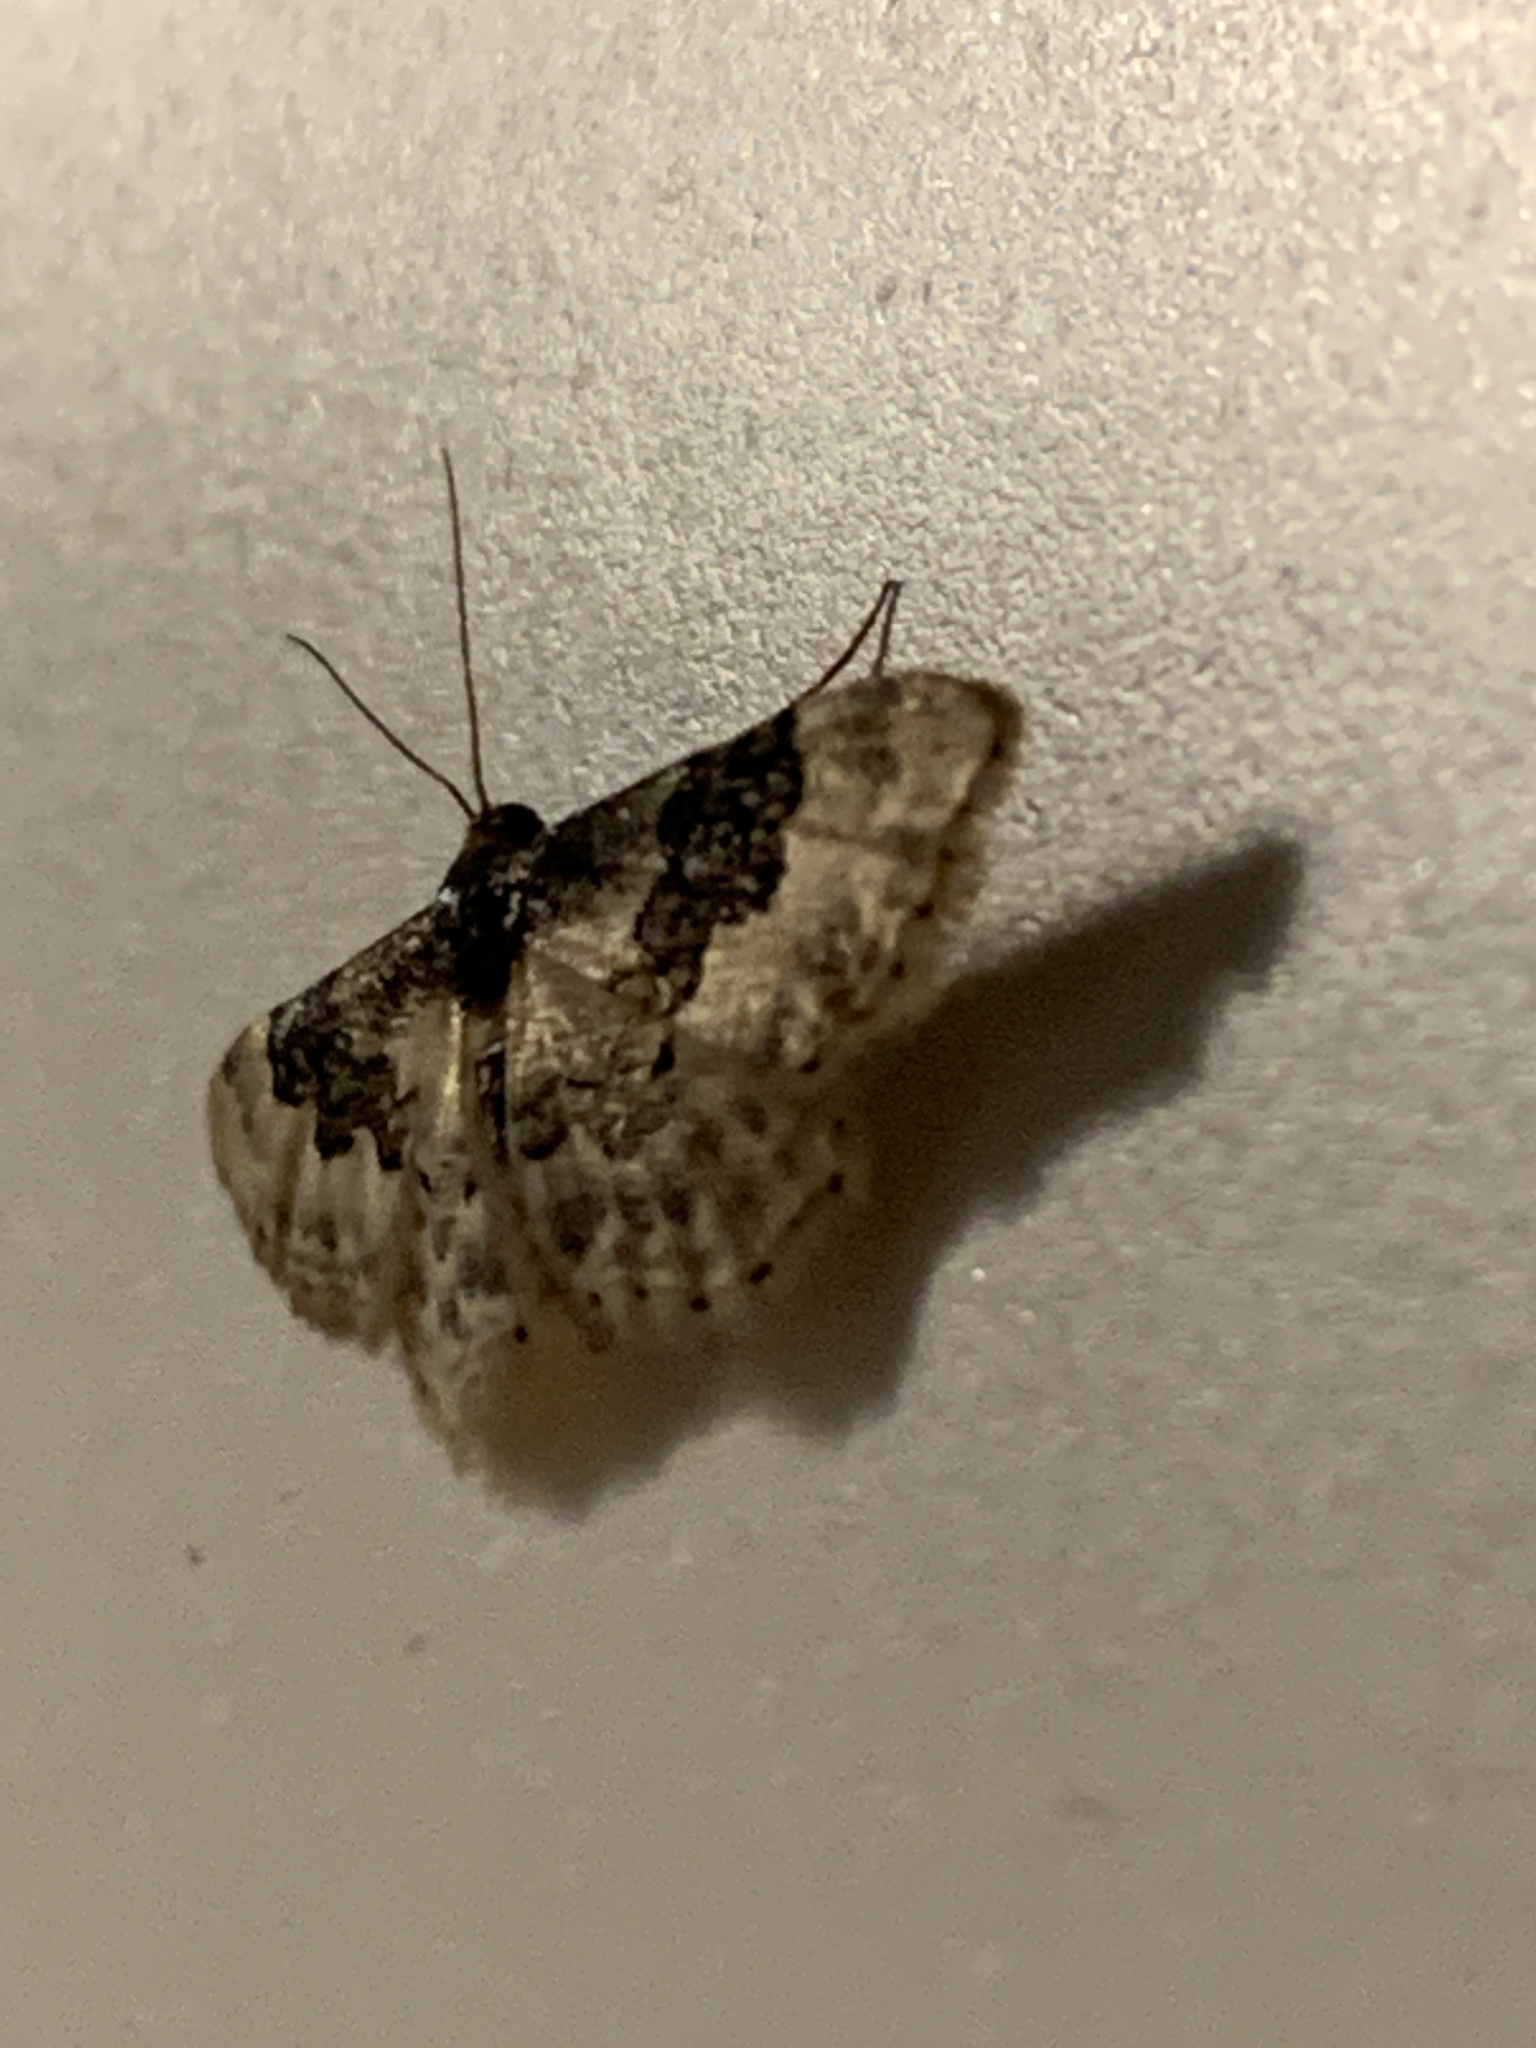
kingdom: Animalia
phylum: Arthropoda
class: Insecta
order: Lepidoptera
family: Geometridae
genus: Idaea
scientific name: Idaea rusticata
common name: Least carpet
